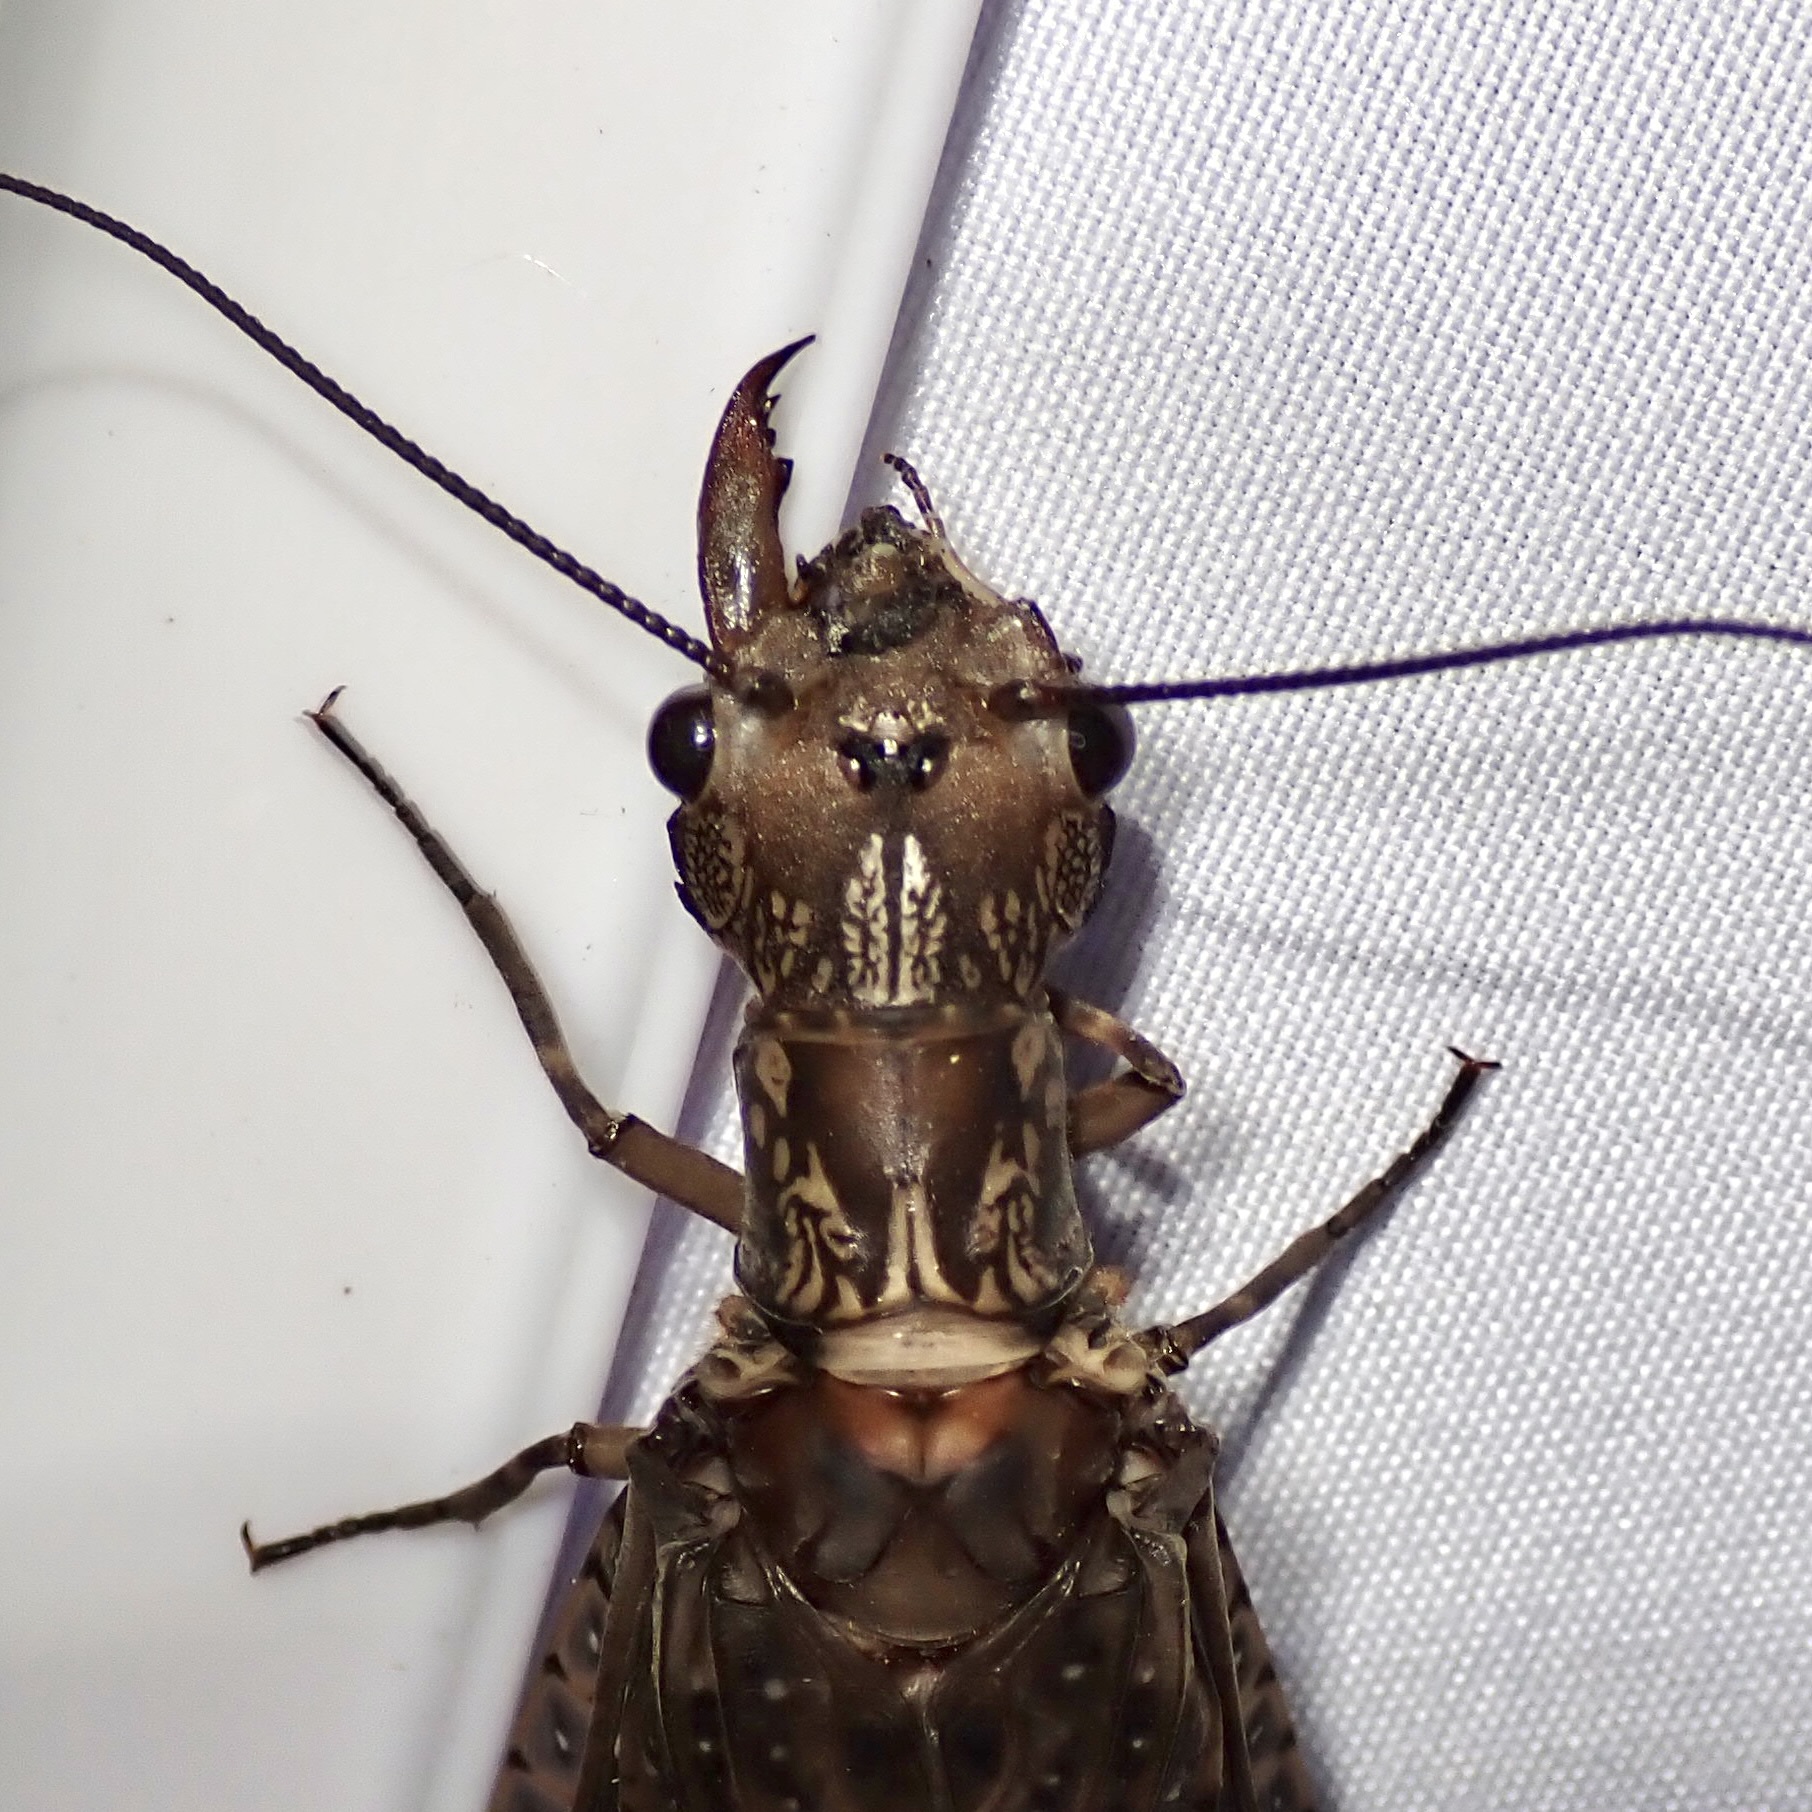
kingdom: Animalia
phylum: Arthropoda
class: Insecta
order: Megaloptera
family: Corydalidae
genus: Corydalus
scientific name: Corydalus texanus
